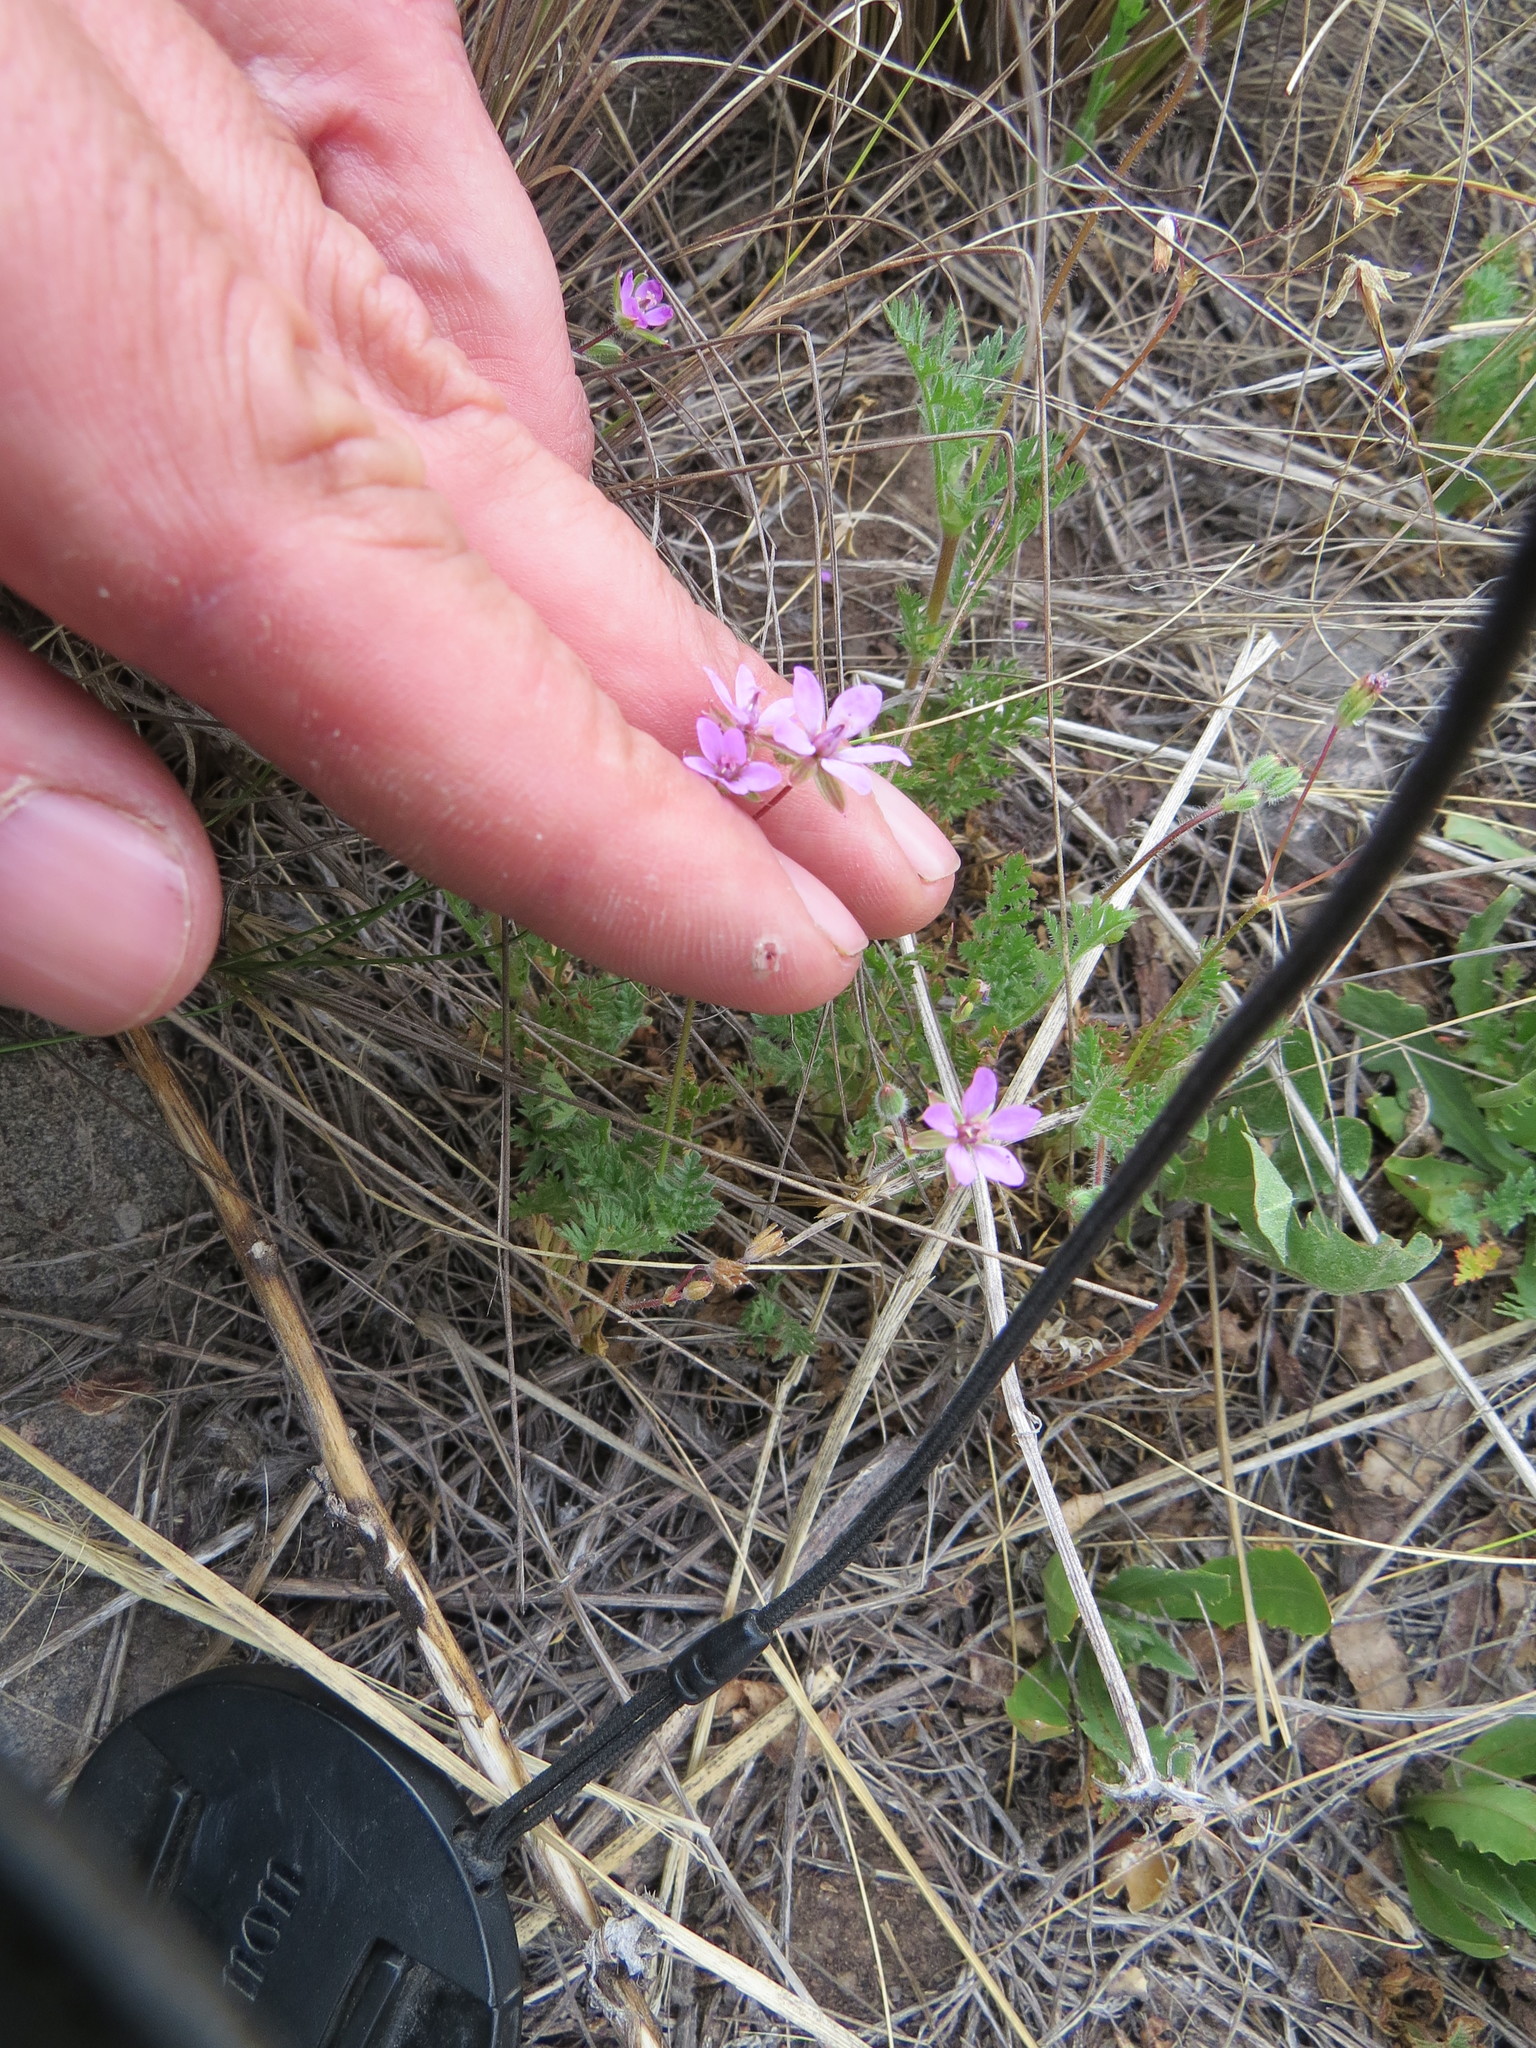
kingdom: Plantae
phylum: Tracheophyta
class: Magnoliopsida
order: Geraniales
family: Geraniaceae
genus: Erodium
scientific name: Erodium cicutarium
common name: Common stork's-bill
